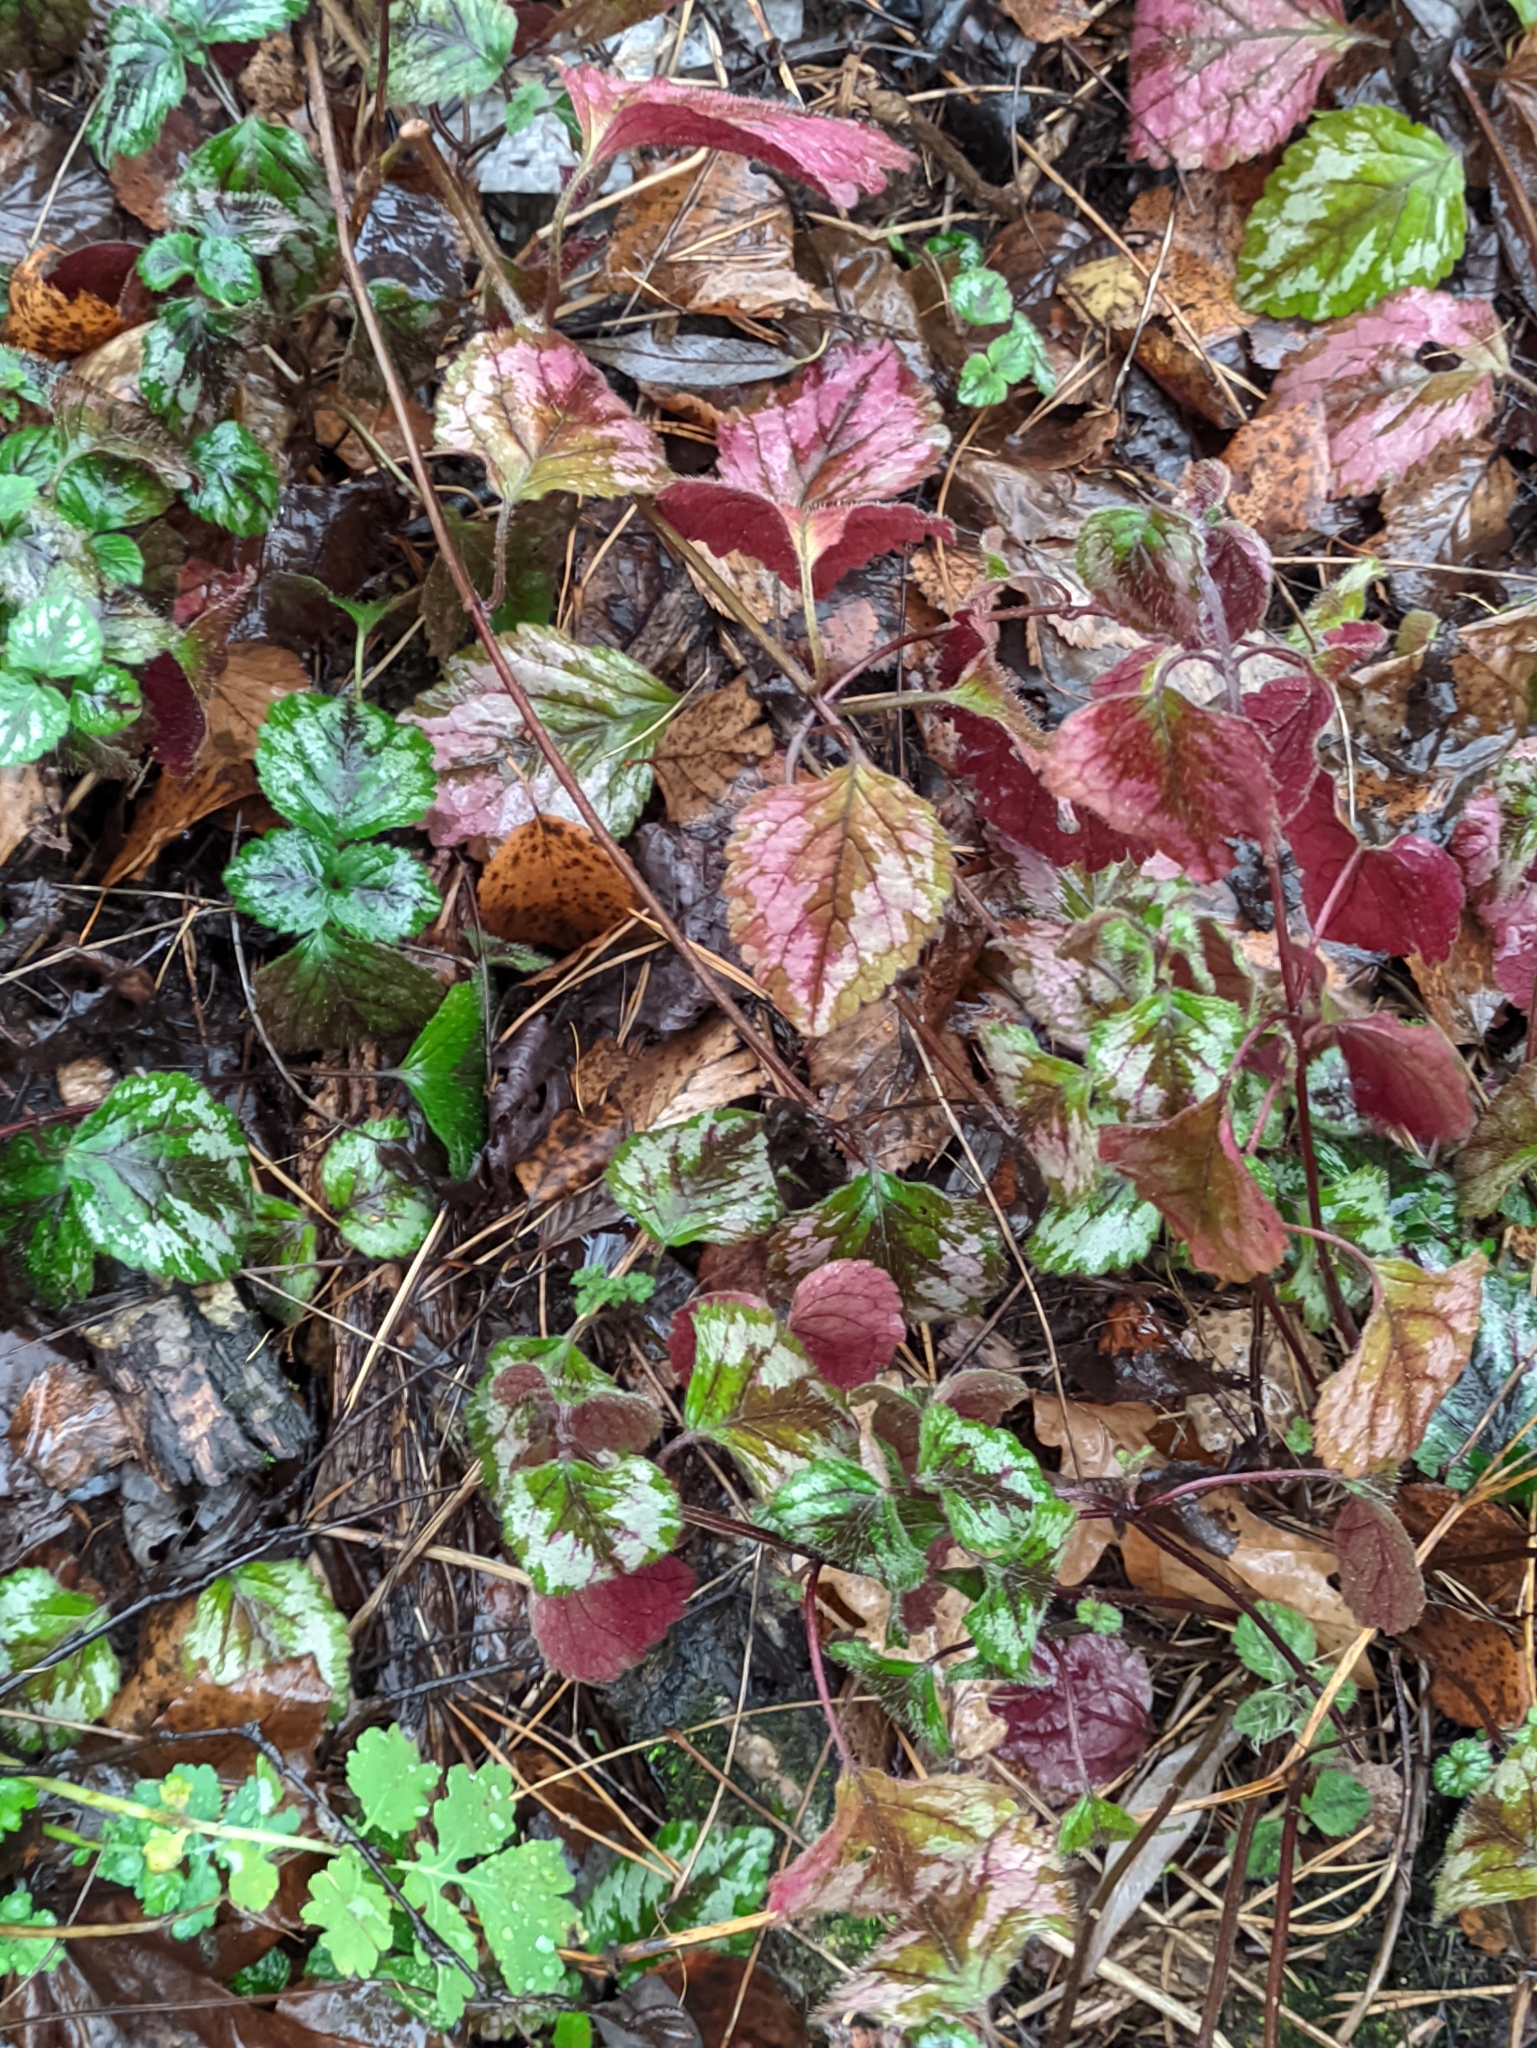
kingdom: Plantae
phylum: Tracheophyta
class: Magnoliopsida
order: Lamiales
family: Lamiaceae
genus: Lamium
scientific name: Lamium galeobdolon
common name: Yellow archangel
